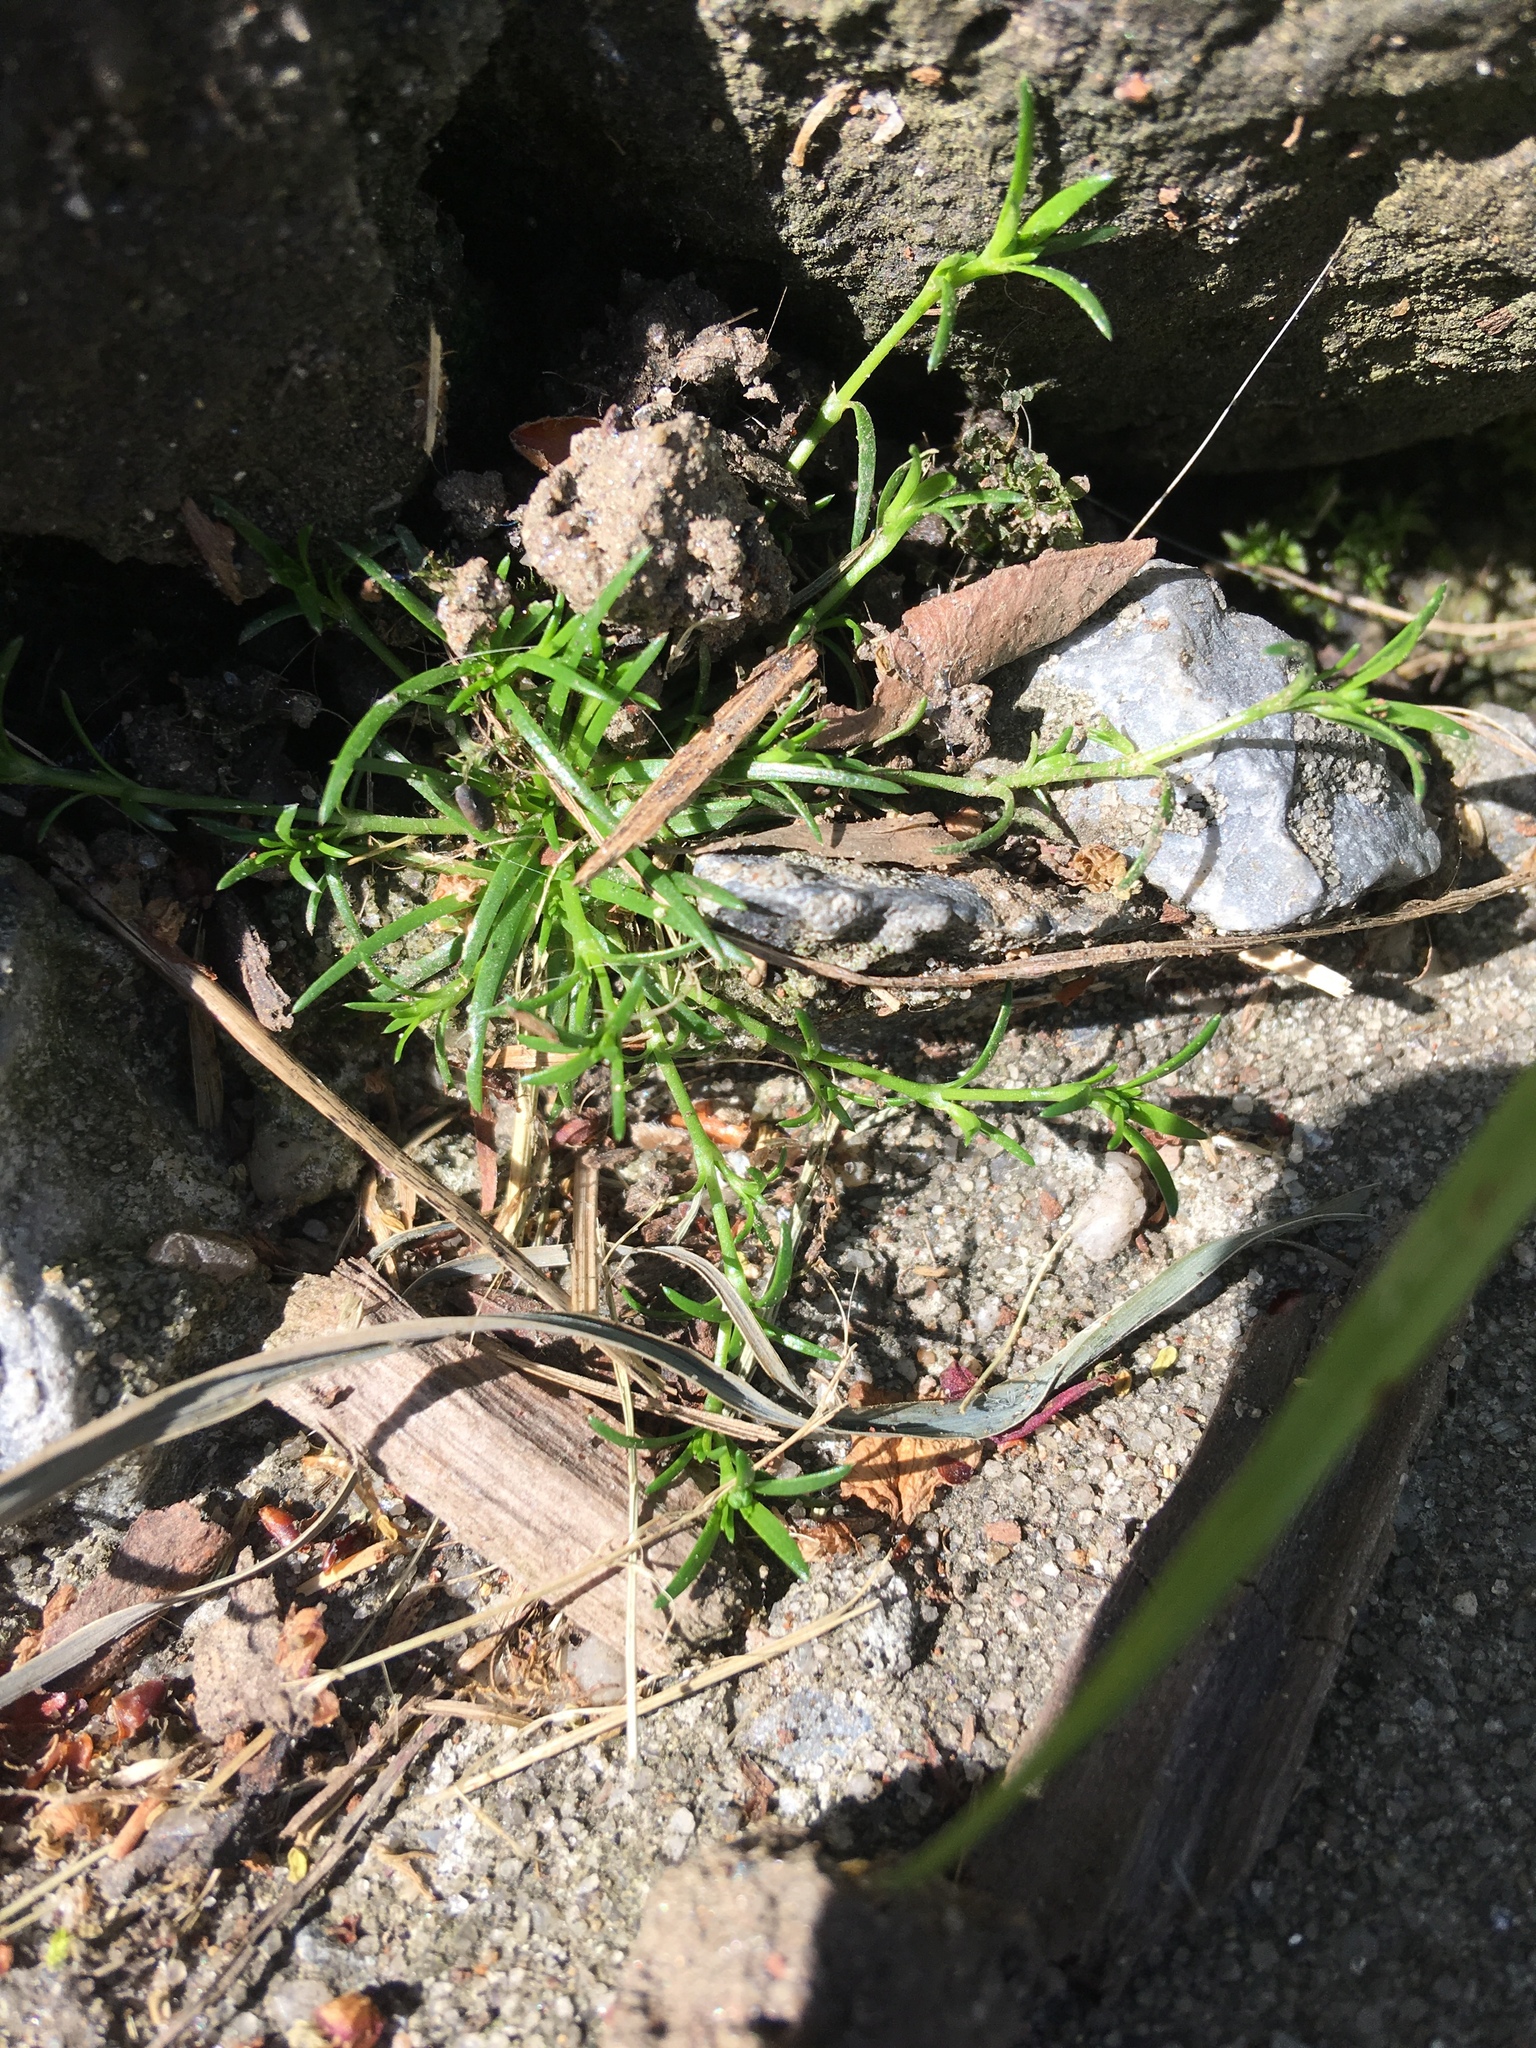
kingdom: Plantae
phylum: Tracheophyta
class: Magnoliopsida
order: Caryophyllales
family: Caryophyllaceae
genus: Scleranthus
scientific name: Scleranthus annuus
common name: Annual knawel
